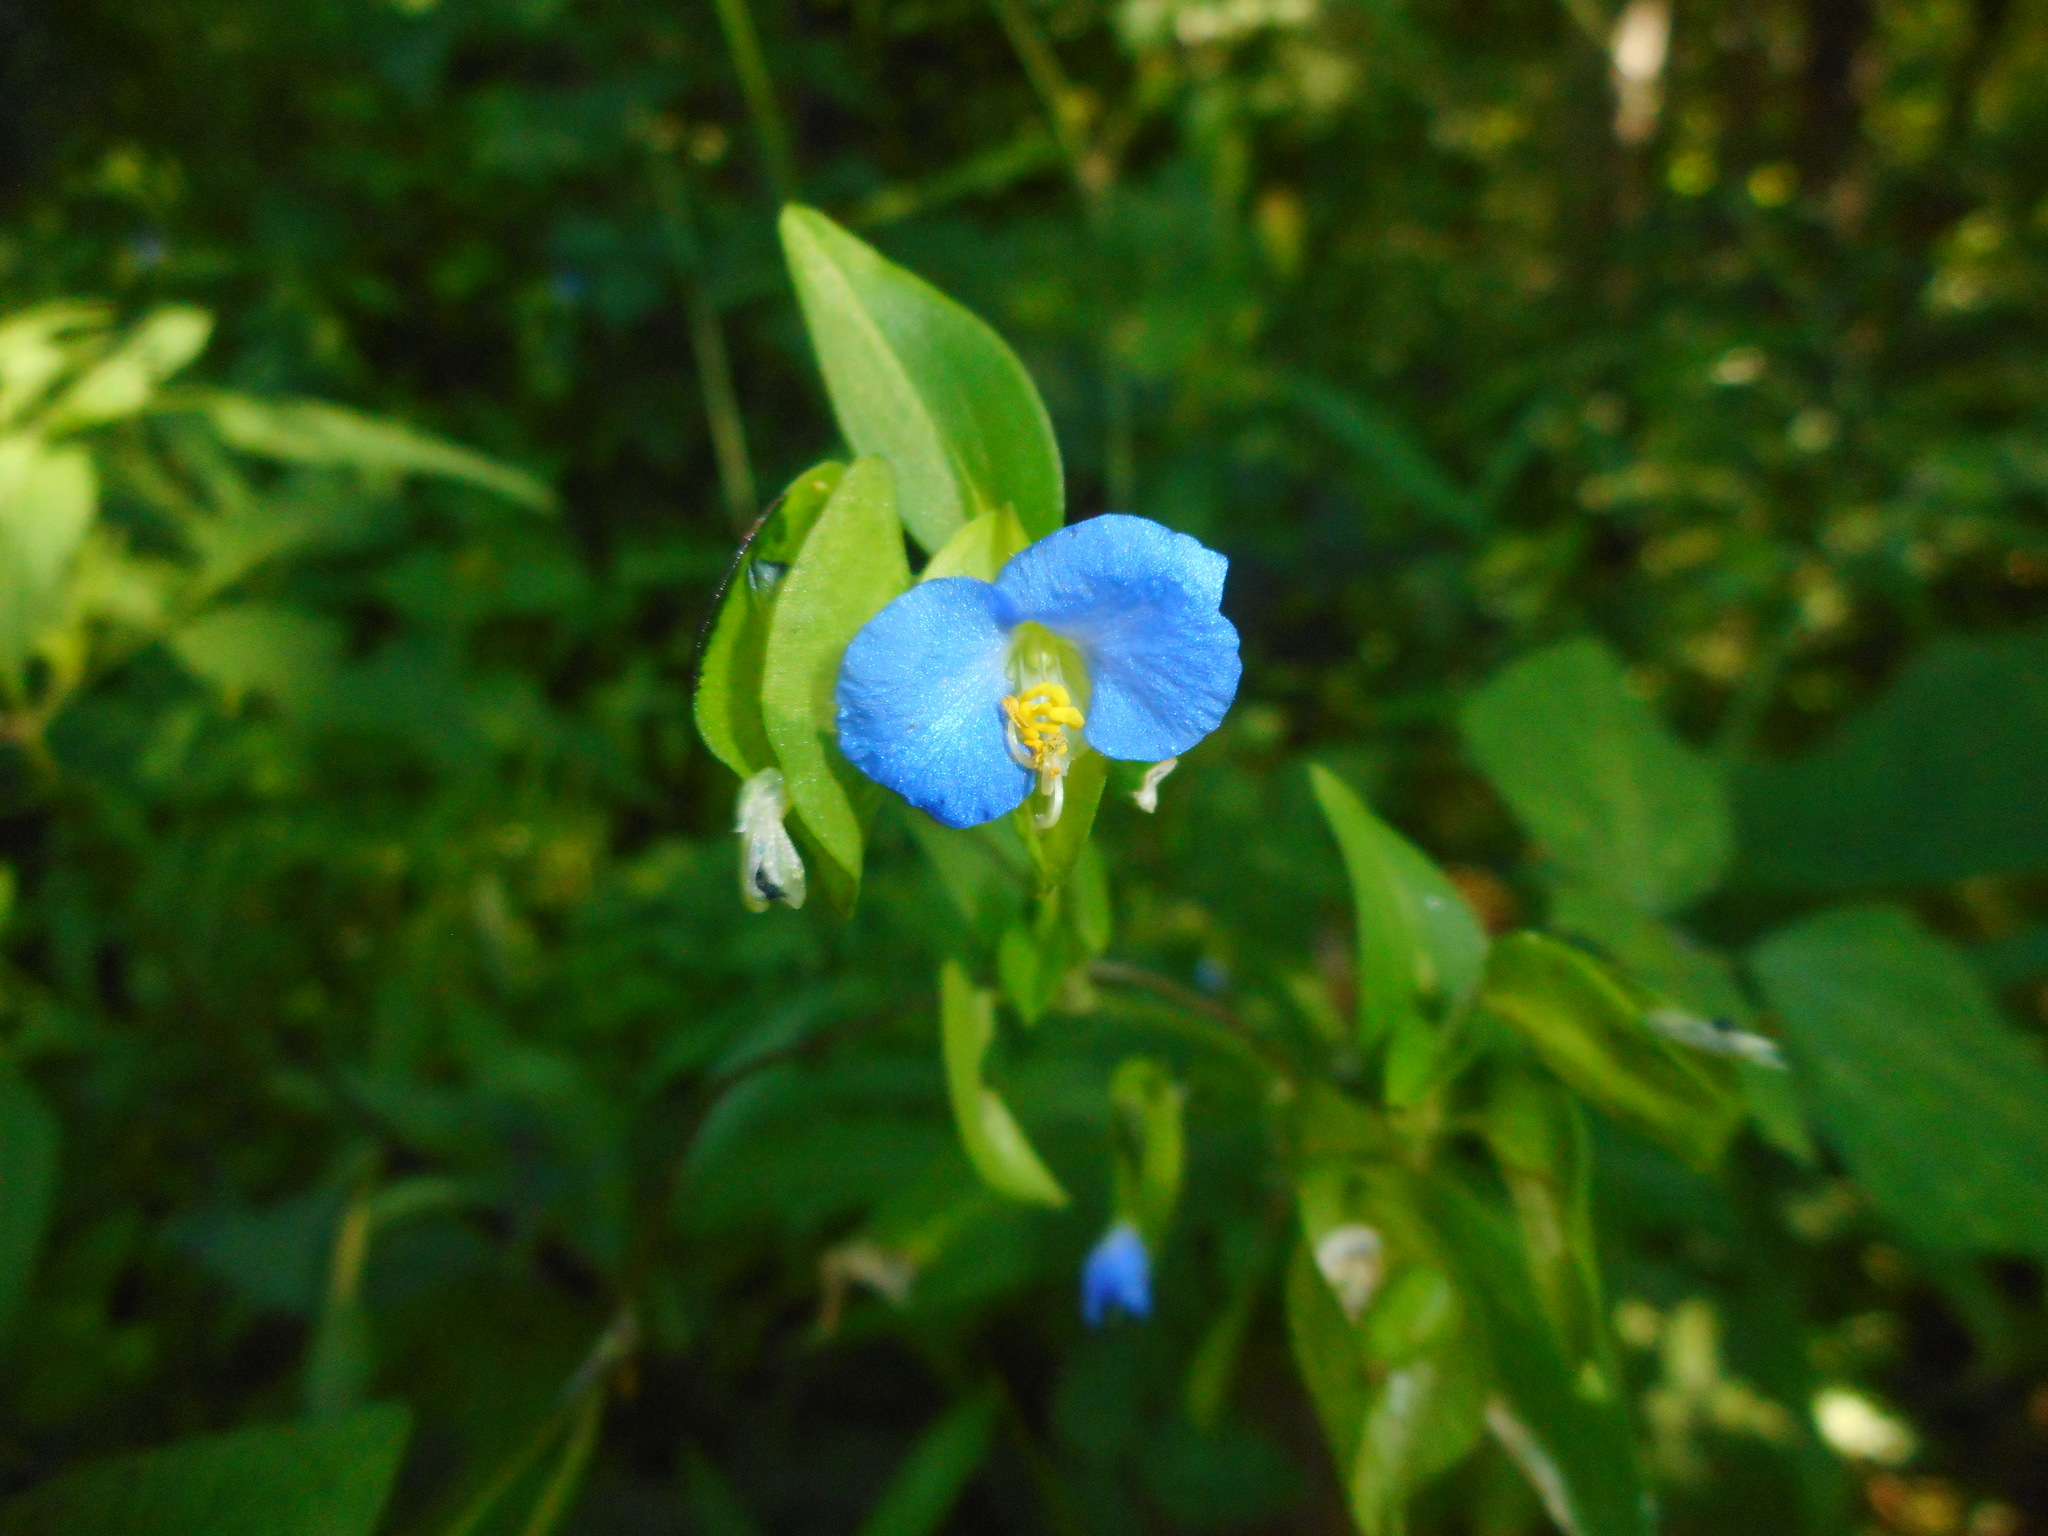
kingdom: Plantae
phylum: Tracheophyta
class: Liliopsida
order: Commelinales
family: Commelinaceae
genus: Commelina
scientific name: Commelina communis
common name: Asiatic dayflower
